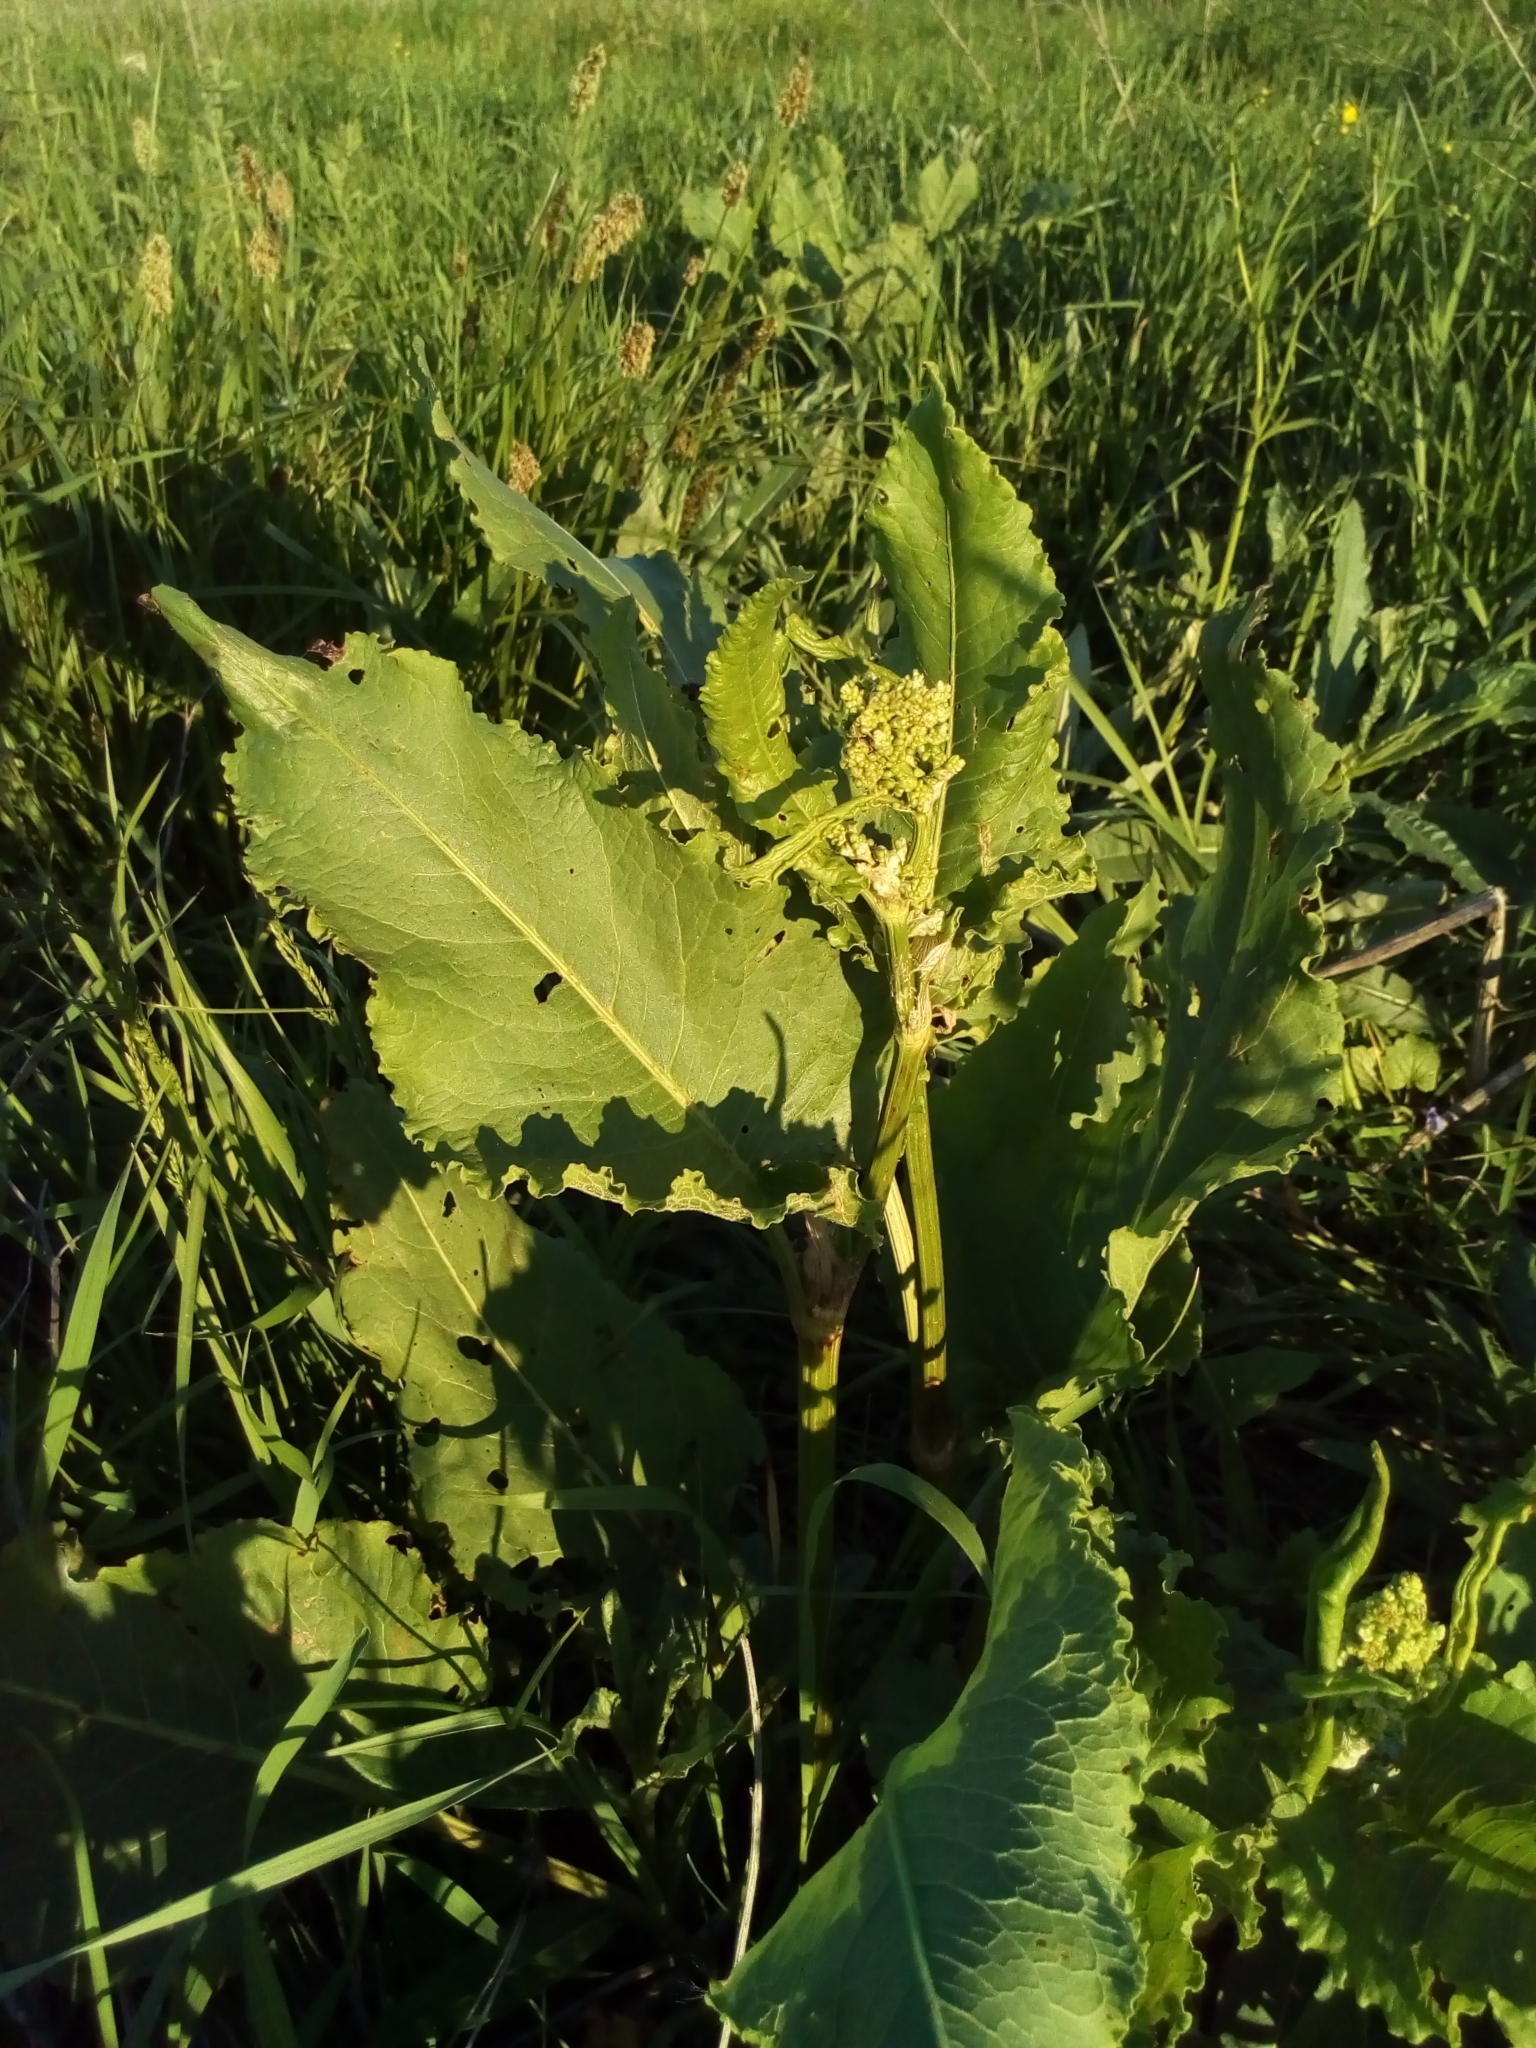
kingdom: Plantae
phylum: Tracheophyta
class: Magnoliopsida
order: Caryophyllales
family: Polygonaceae
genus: Rumex
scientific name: Rumex confertus
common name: Russian dock
